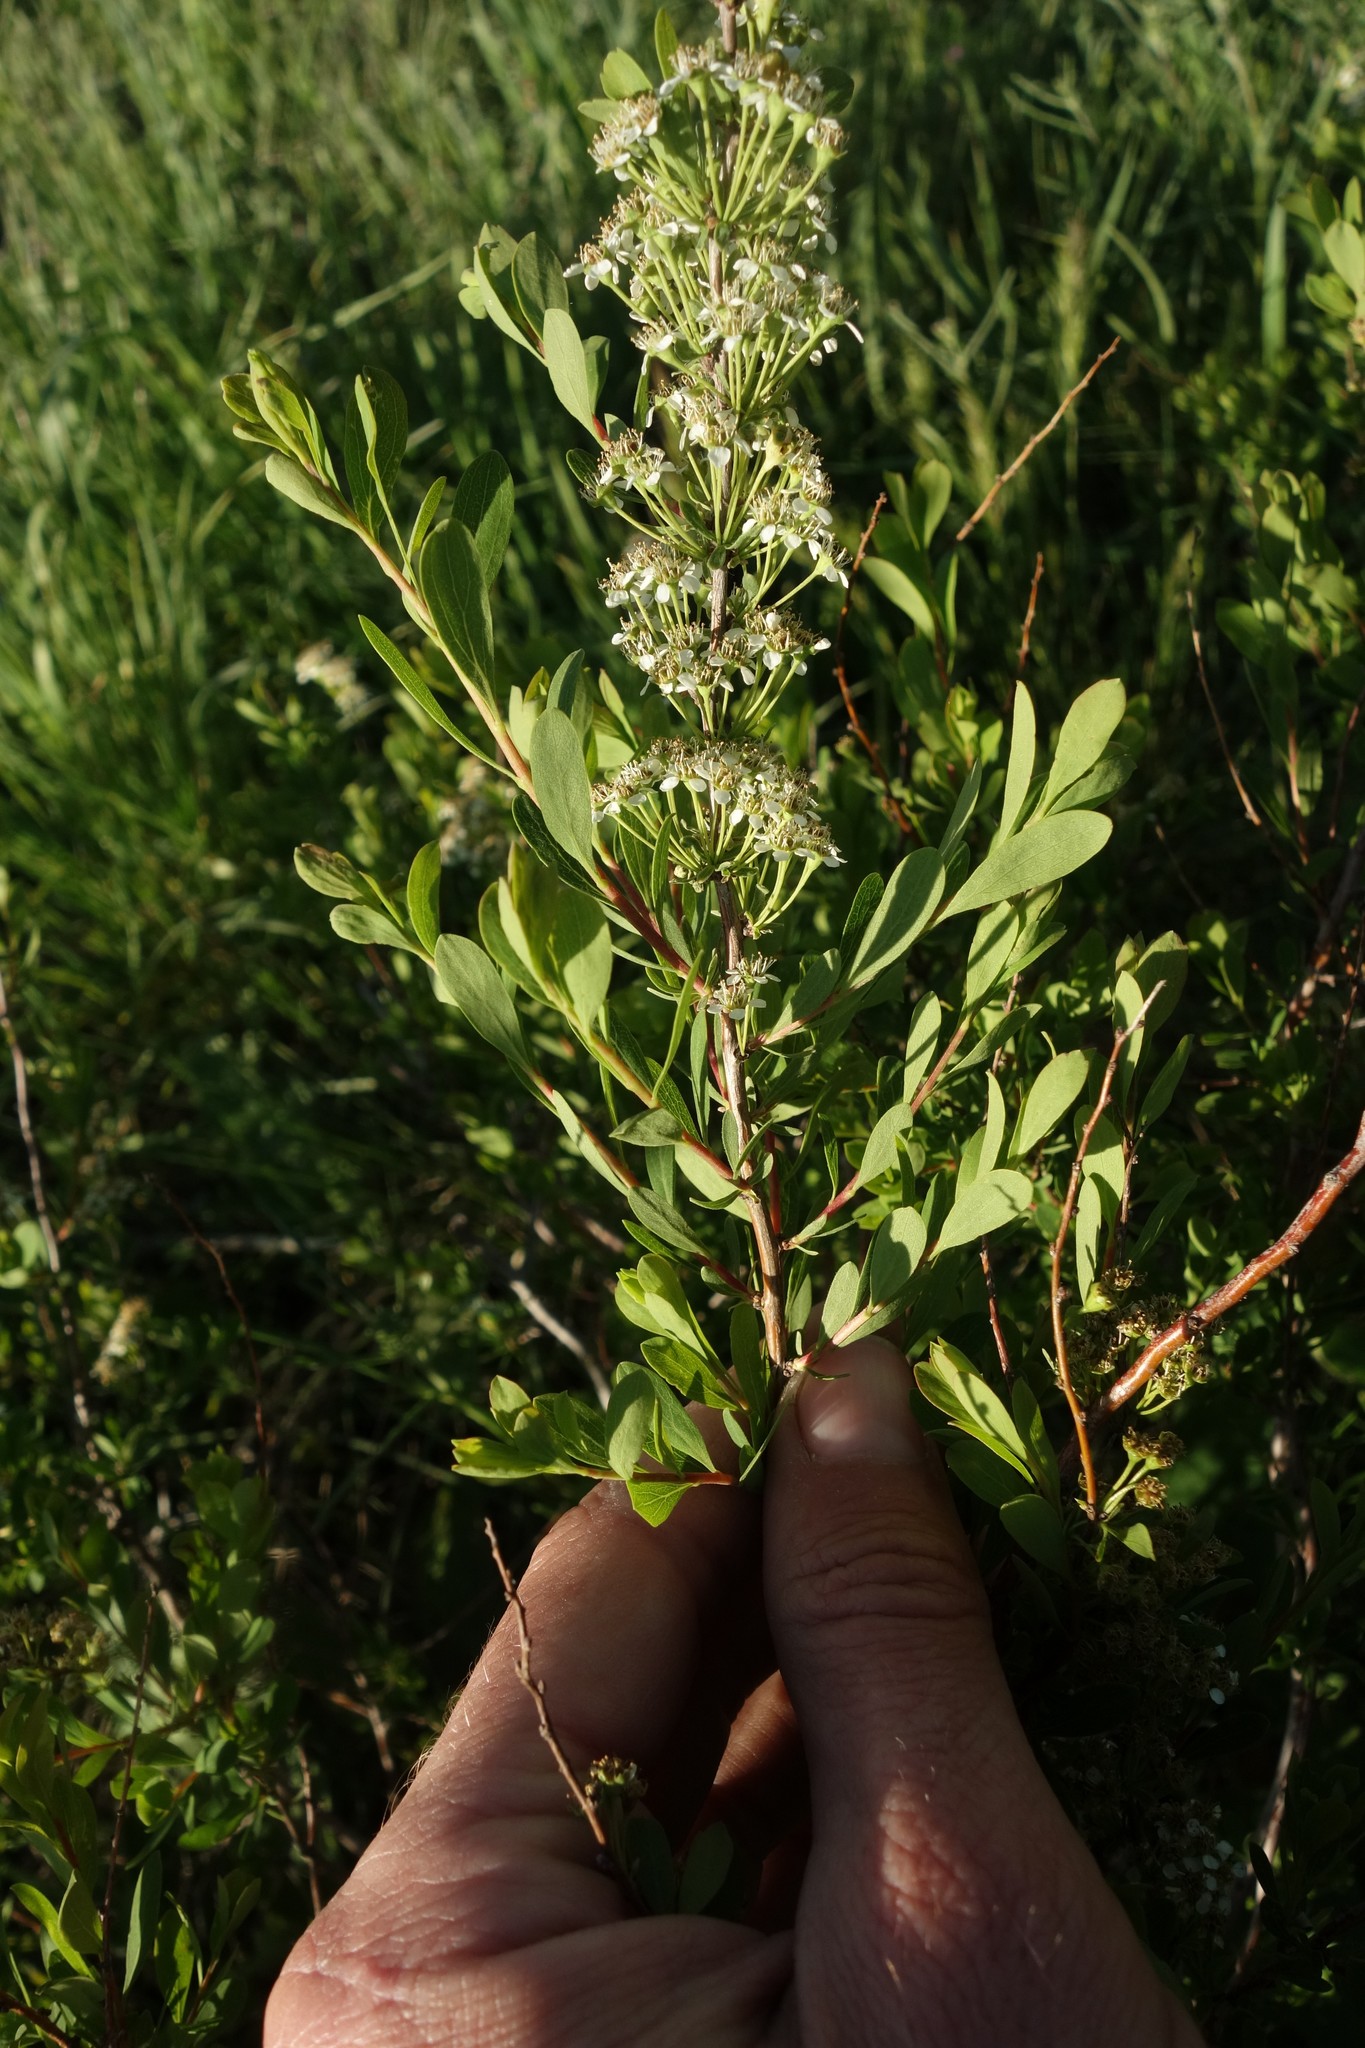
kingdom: Plantae
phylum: Tracheophyta
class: Magnoliopsida
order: Rosales
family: Rosaceae
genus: Spiraea
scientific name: Spiraea hypericifolia
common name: Iberian spirea
